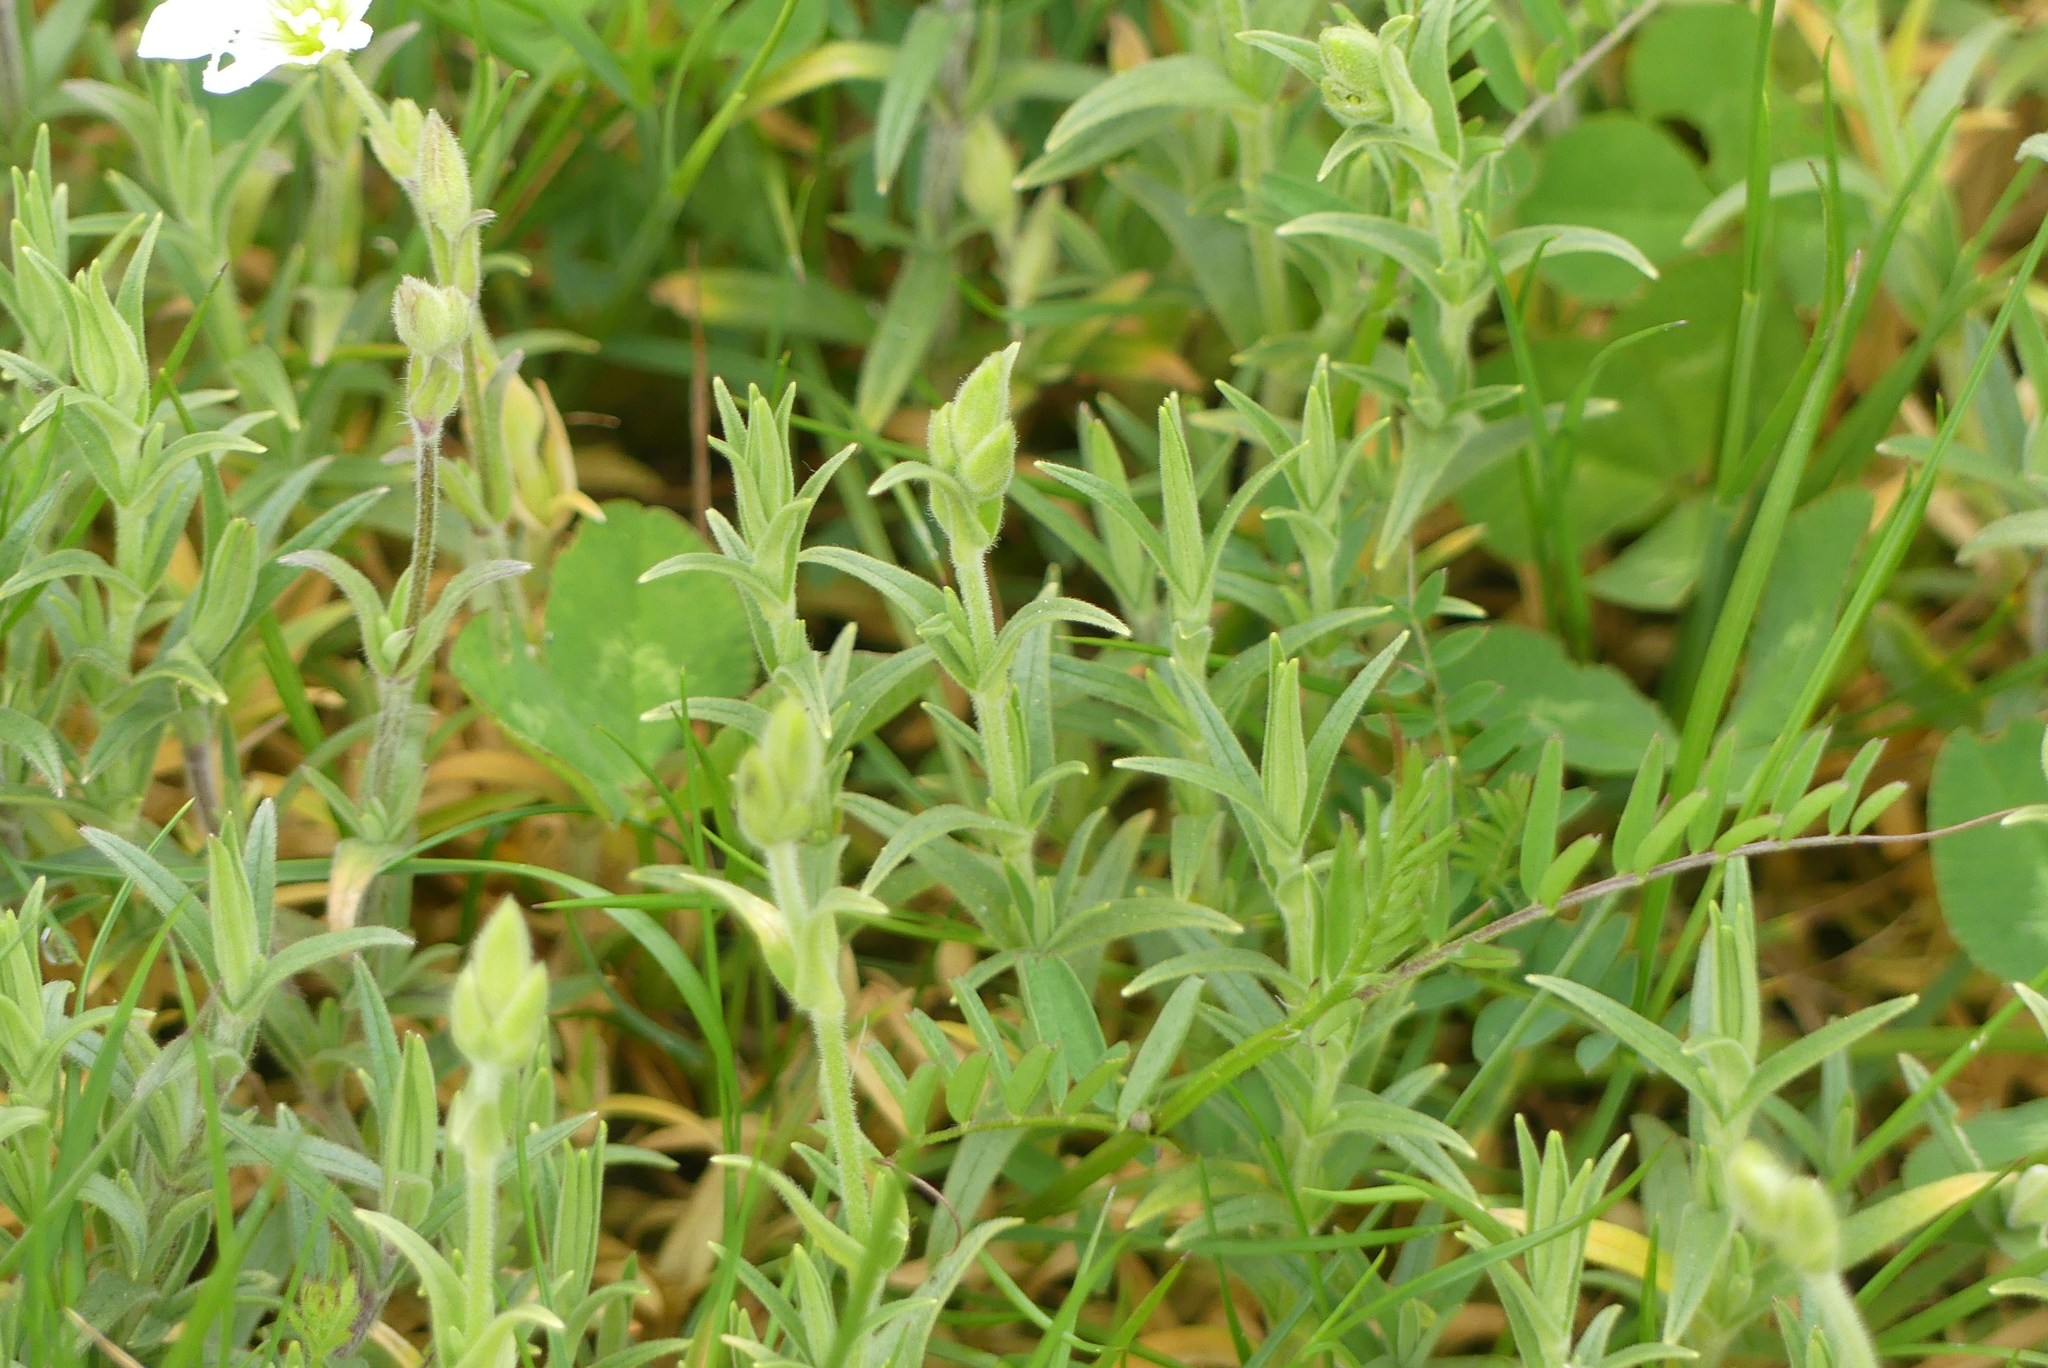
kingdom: Plantae
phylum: Tracheophyta
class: Magnoliopsida
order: Caryophyllales
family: Caryophyllaceae
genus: Cerastium
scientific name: Cerastium arvense
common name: Field mouse-ear
